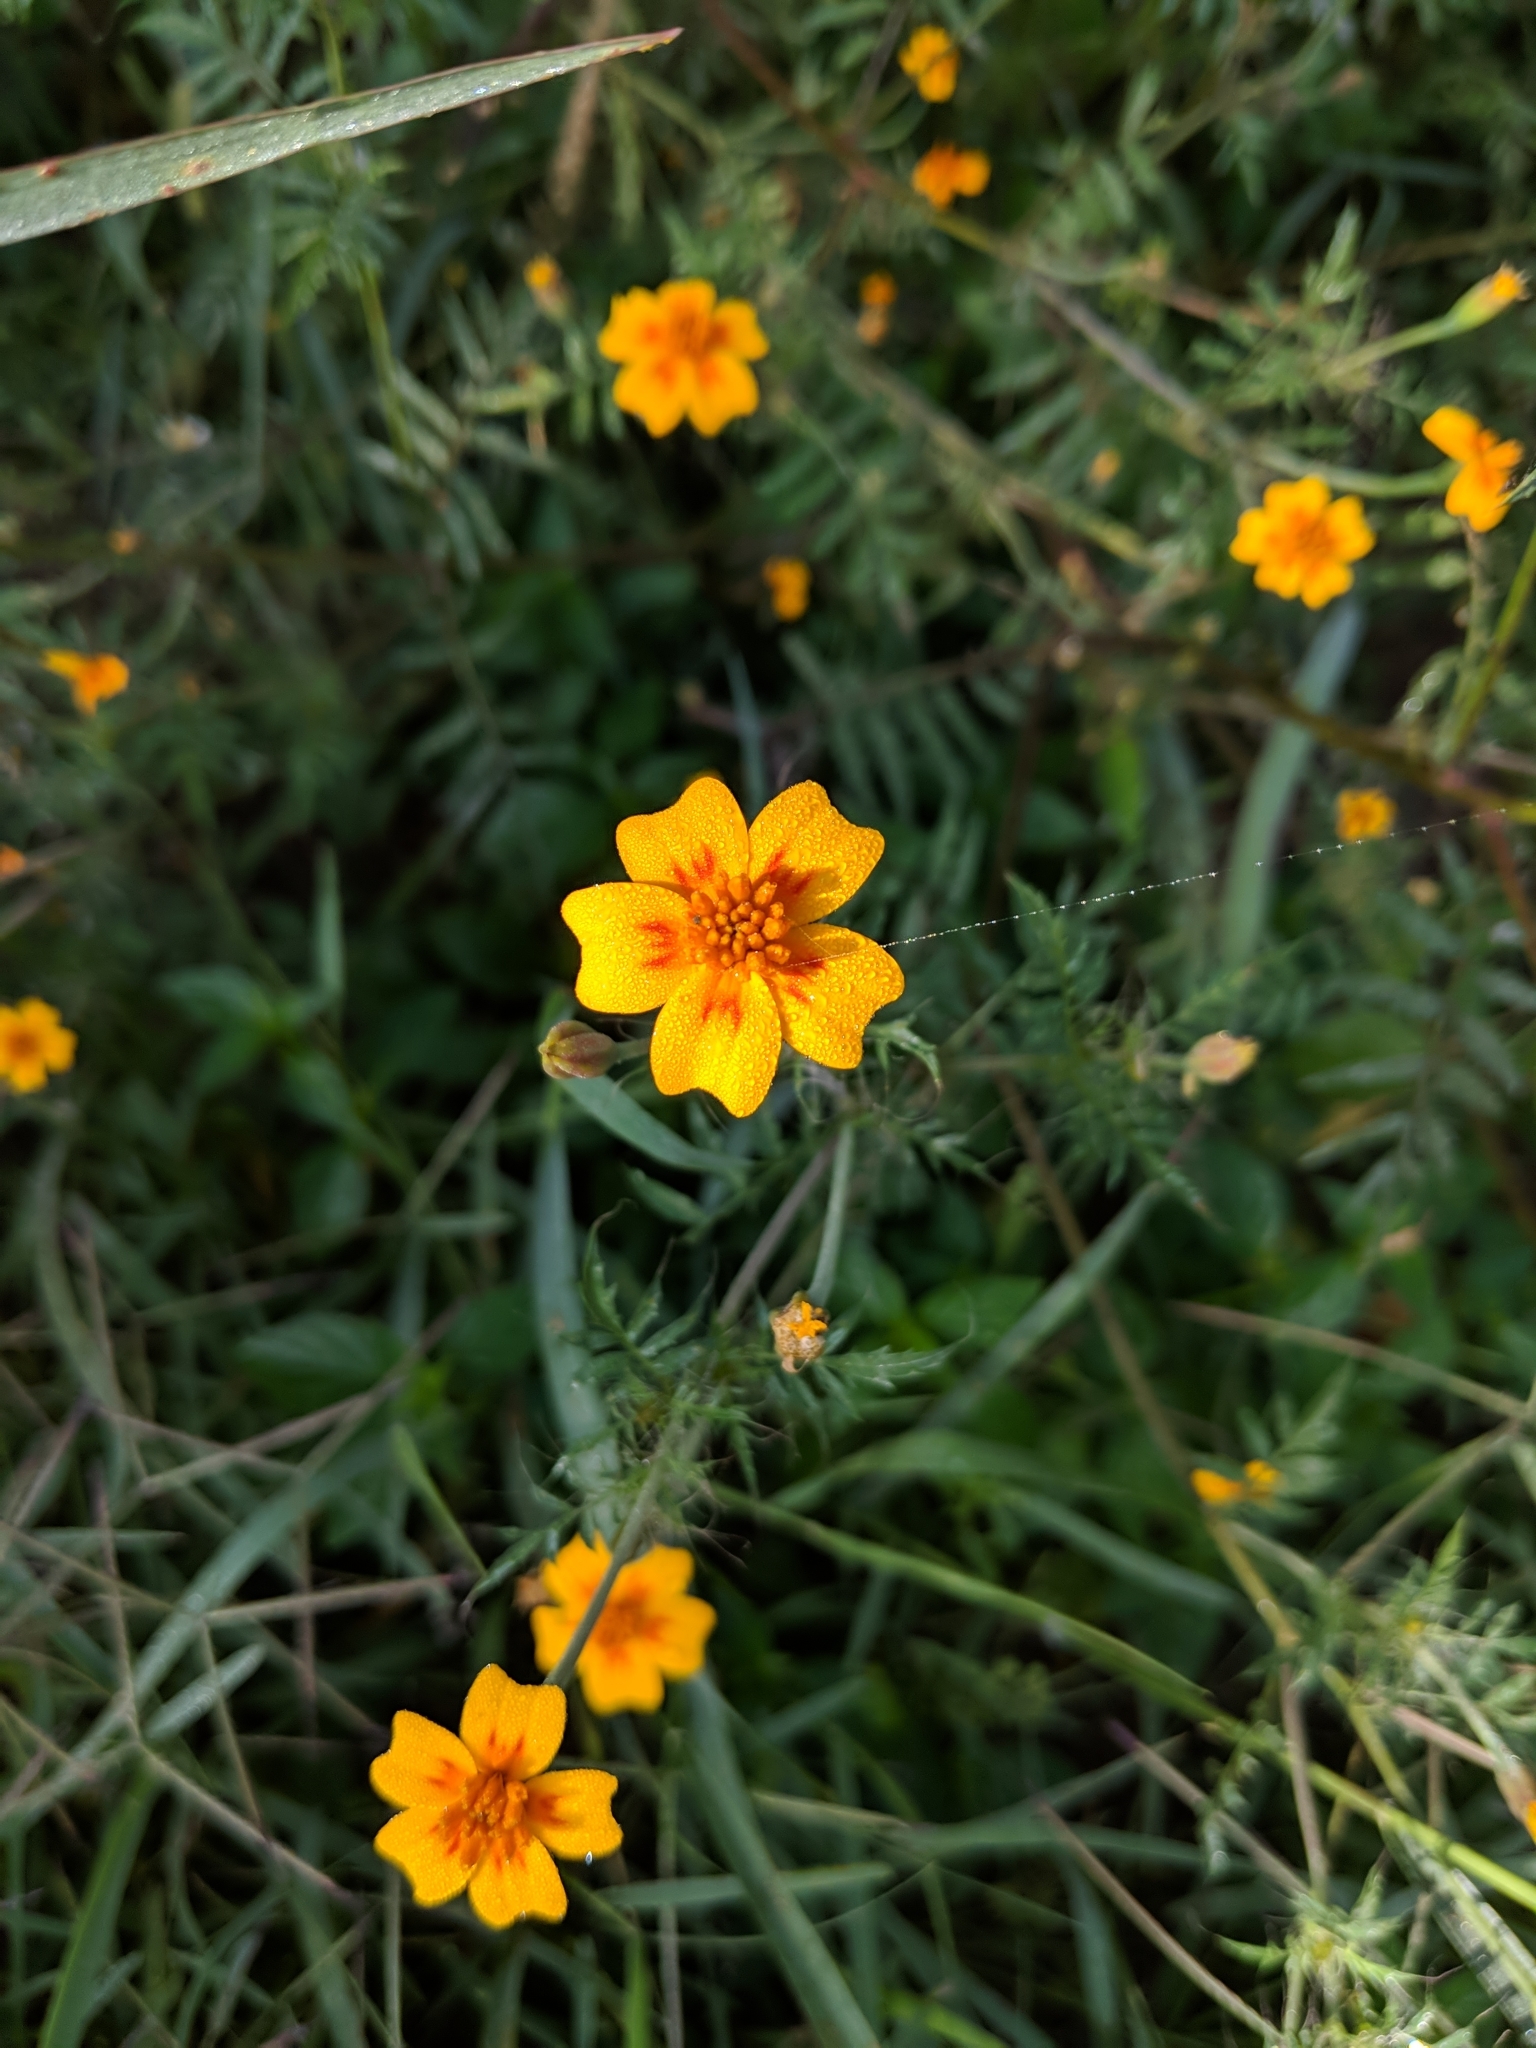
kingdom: Plantae
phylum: Tracheophyta
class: Magnoliopsida
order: Asterales
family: Asteraceae
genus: Tagetes
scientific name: Tagetes lunulata
